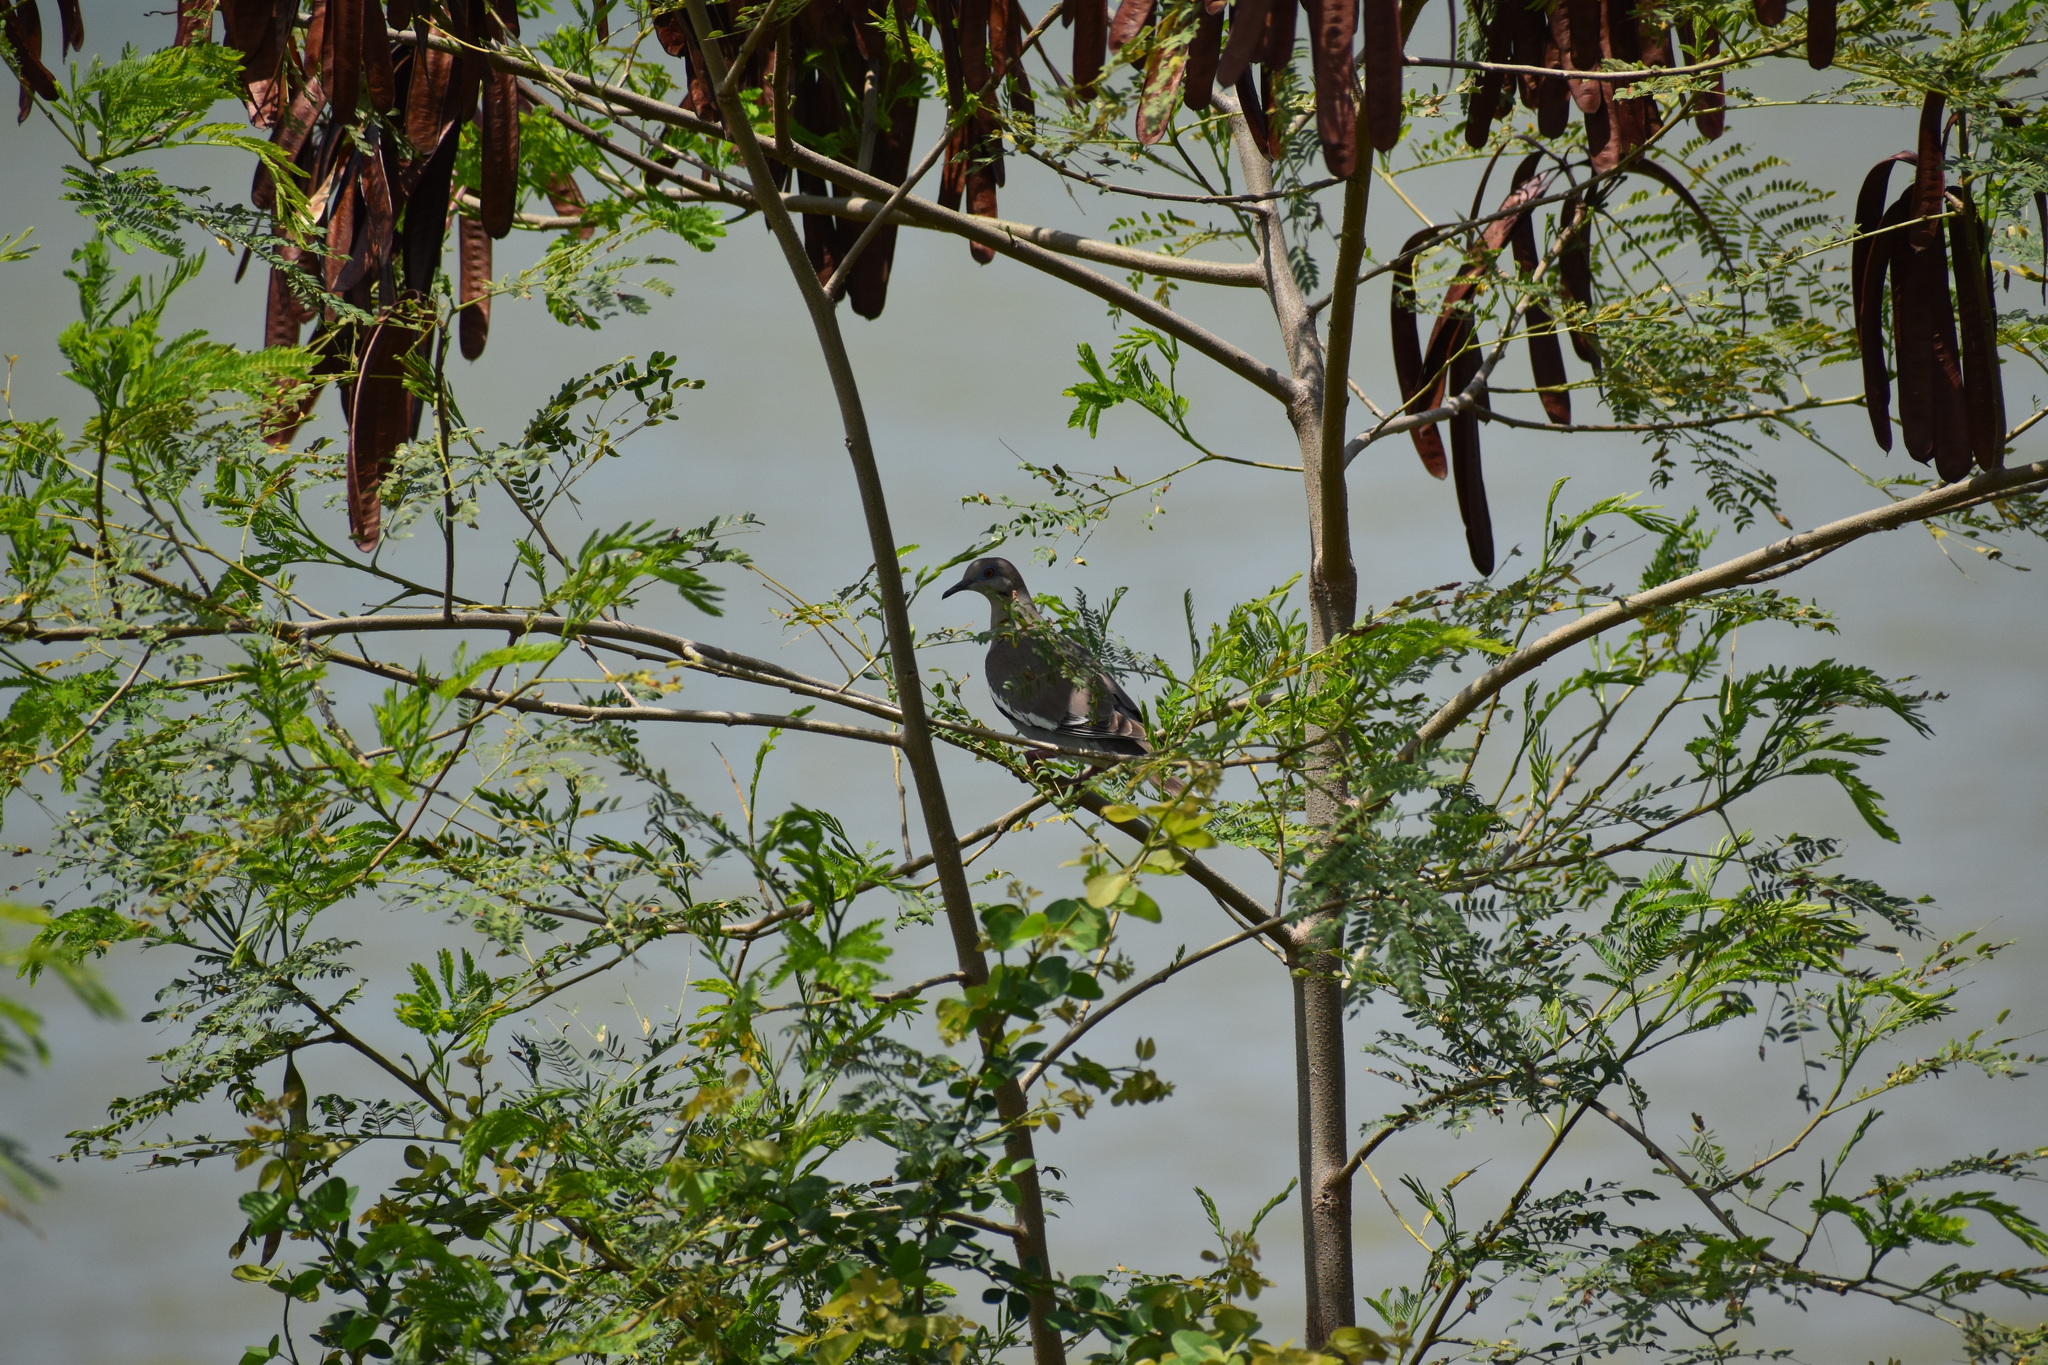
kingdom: Animalia
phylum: Chordata
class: Aves
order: Columbiformes
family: Columbidae
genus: Zenaida
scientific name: Zenaida asiatica
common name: White-winged dove
